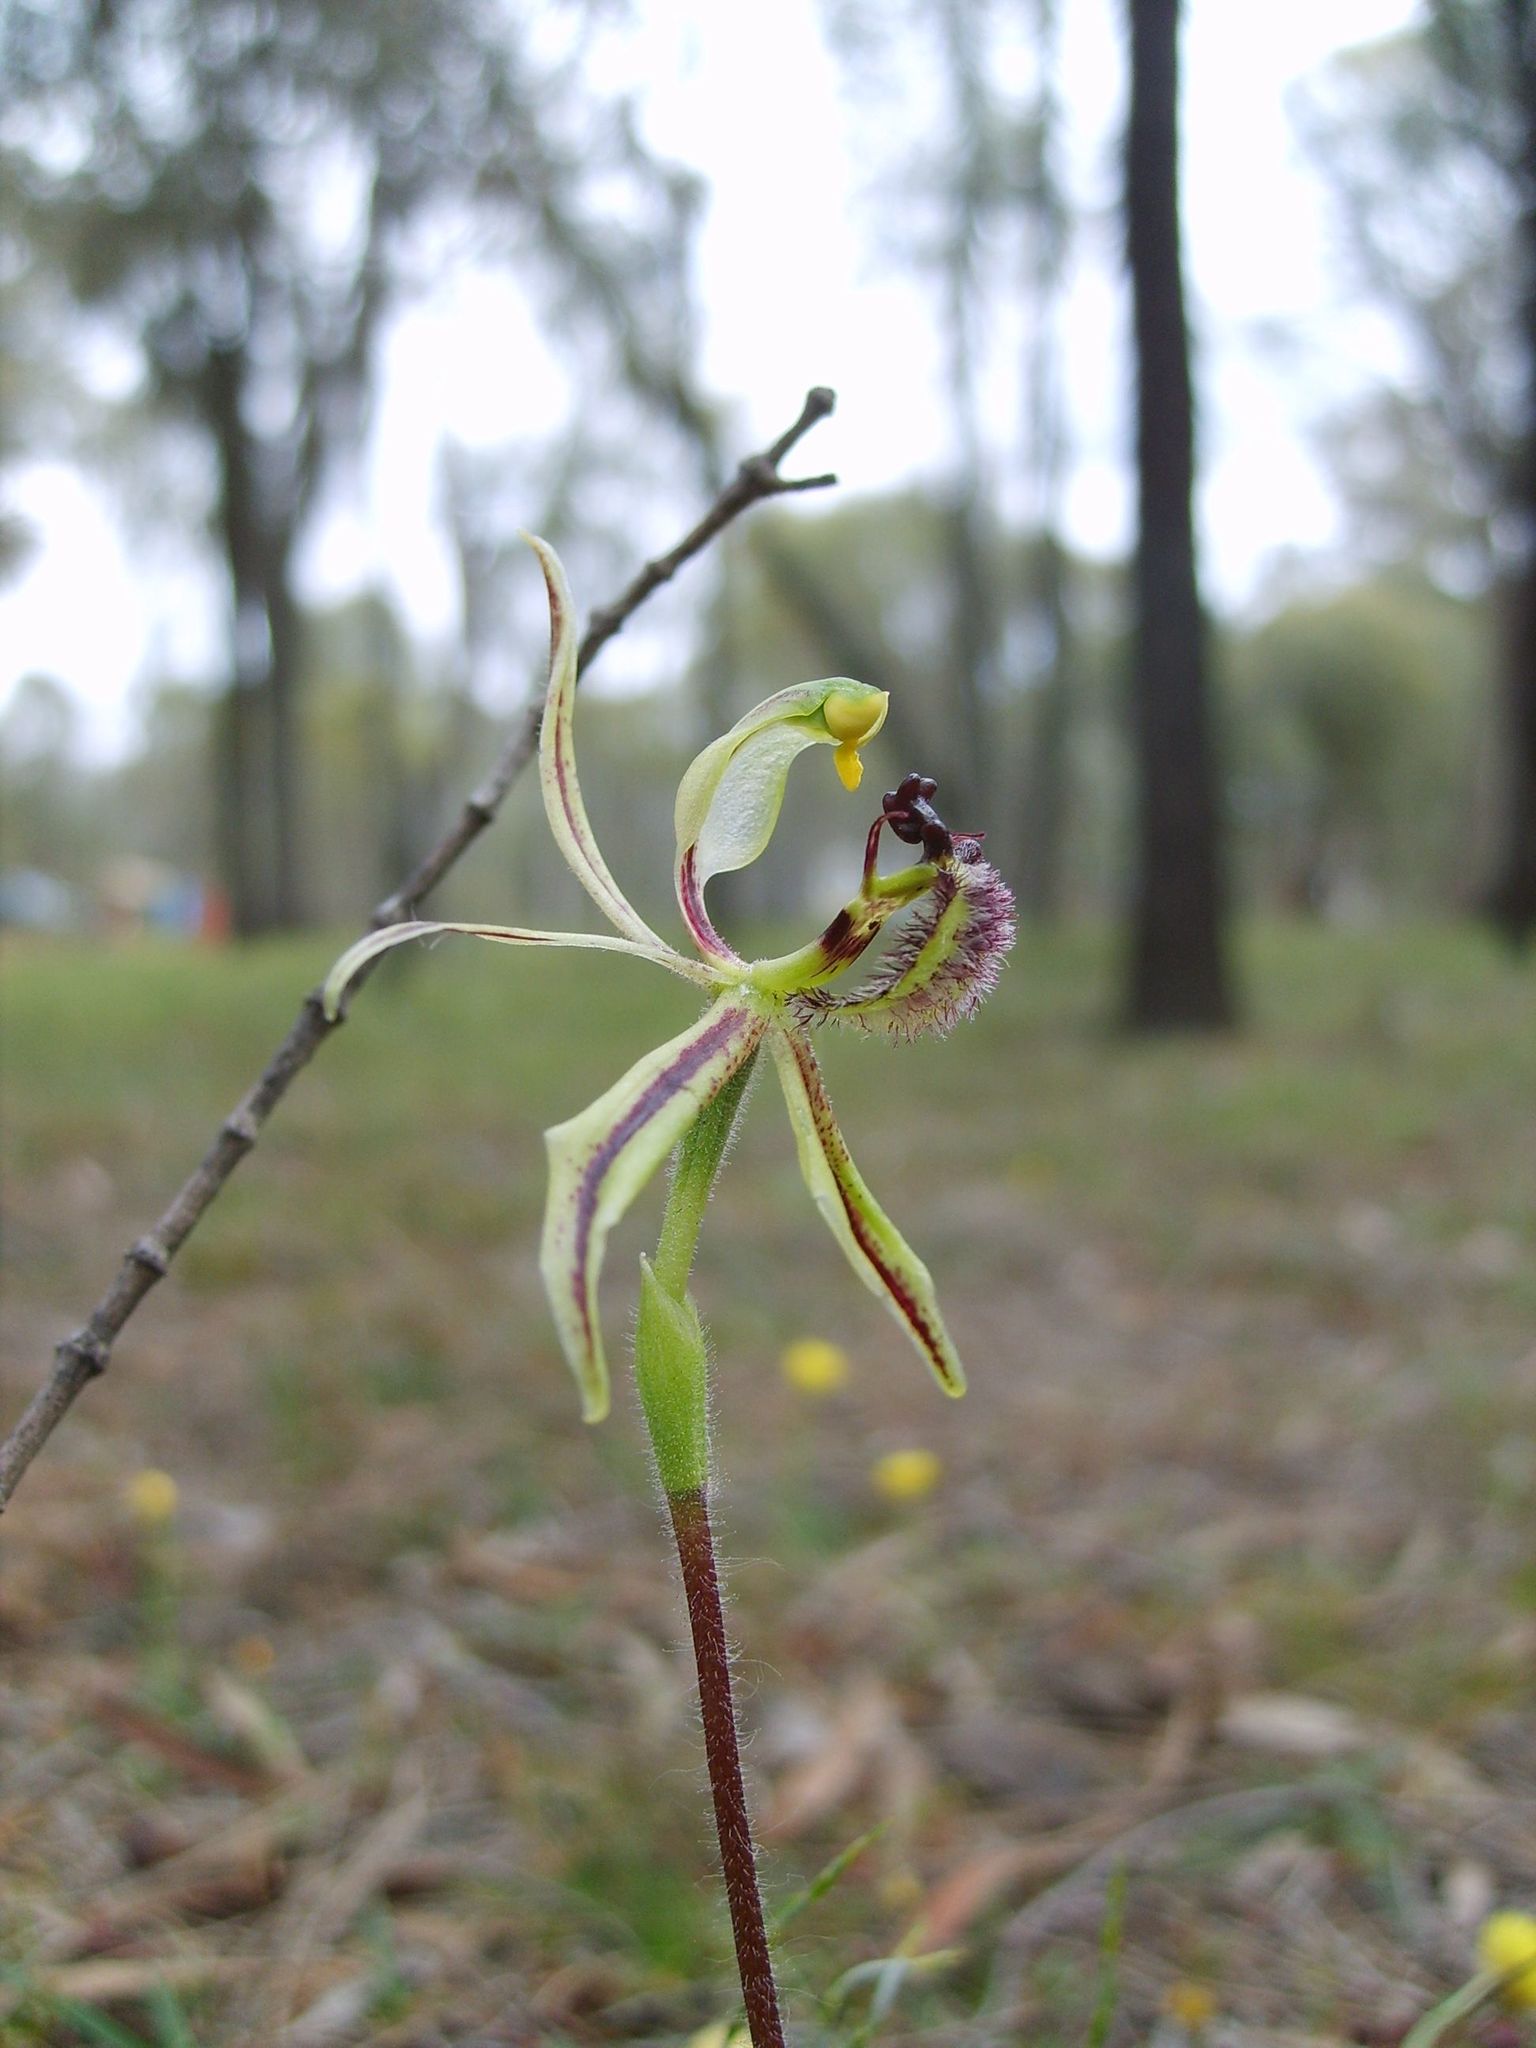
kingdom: Plantae
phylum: Tracheophyta
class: Liliopsida
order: Asparagales
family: Orchidaceae
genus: Caladenia
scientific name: Caladenia barbarossa
